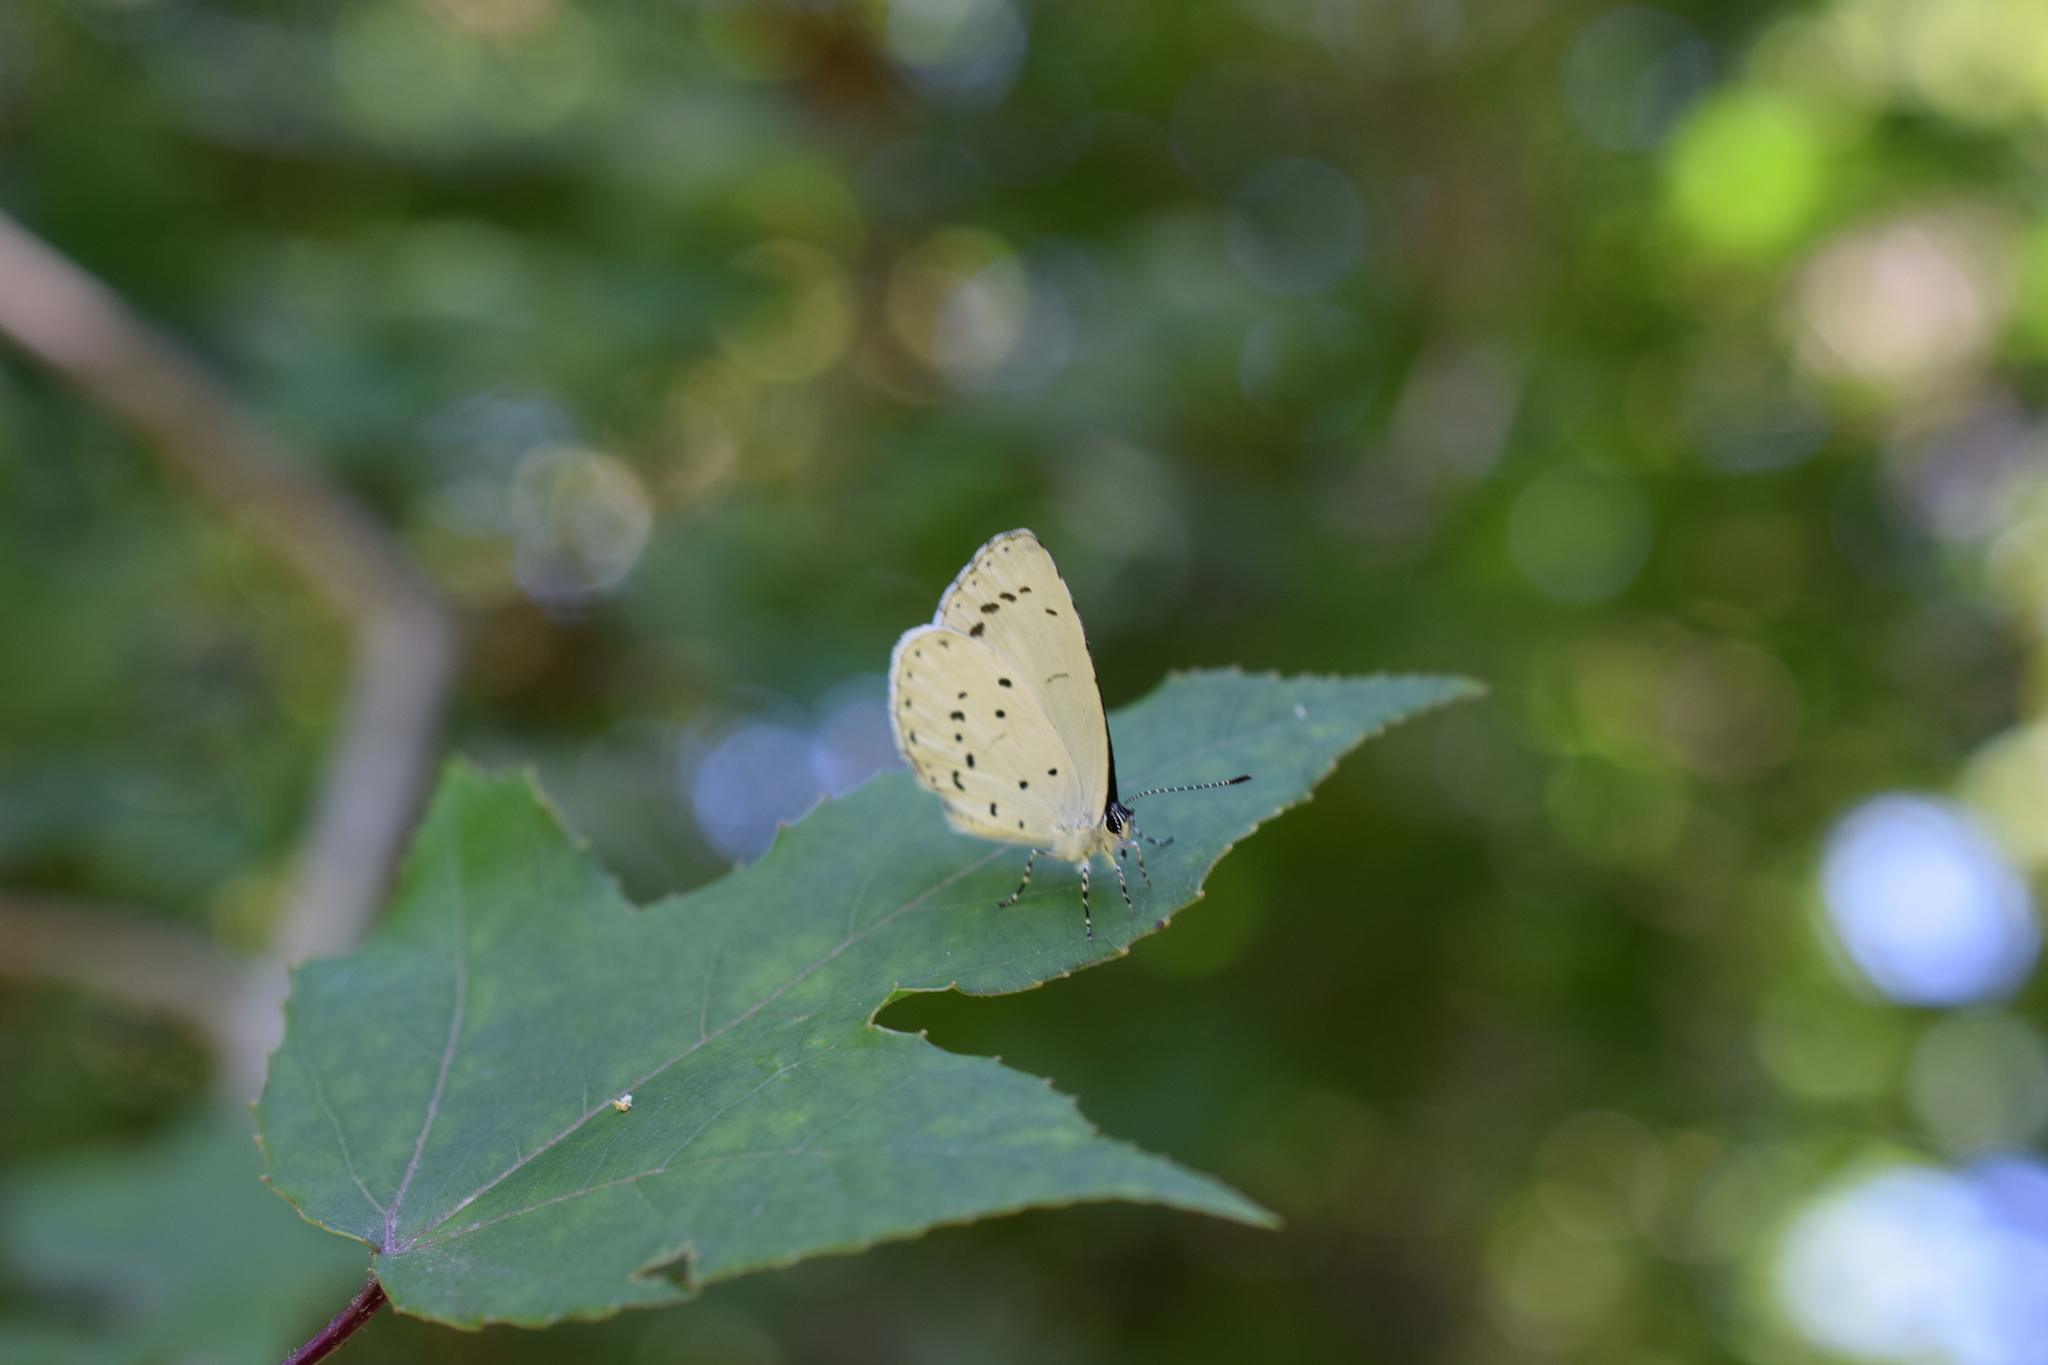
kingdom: Animalia
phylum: Arthropoda
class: Insecta
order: Lepidoptera
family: Lycaenidae
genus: Udara
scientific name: Udara albocaerulea
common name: Albocerulean
